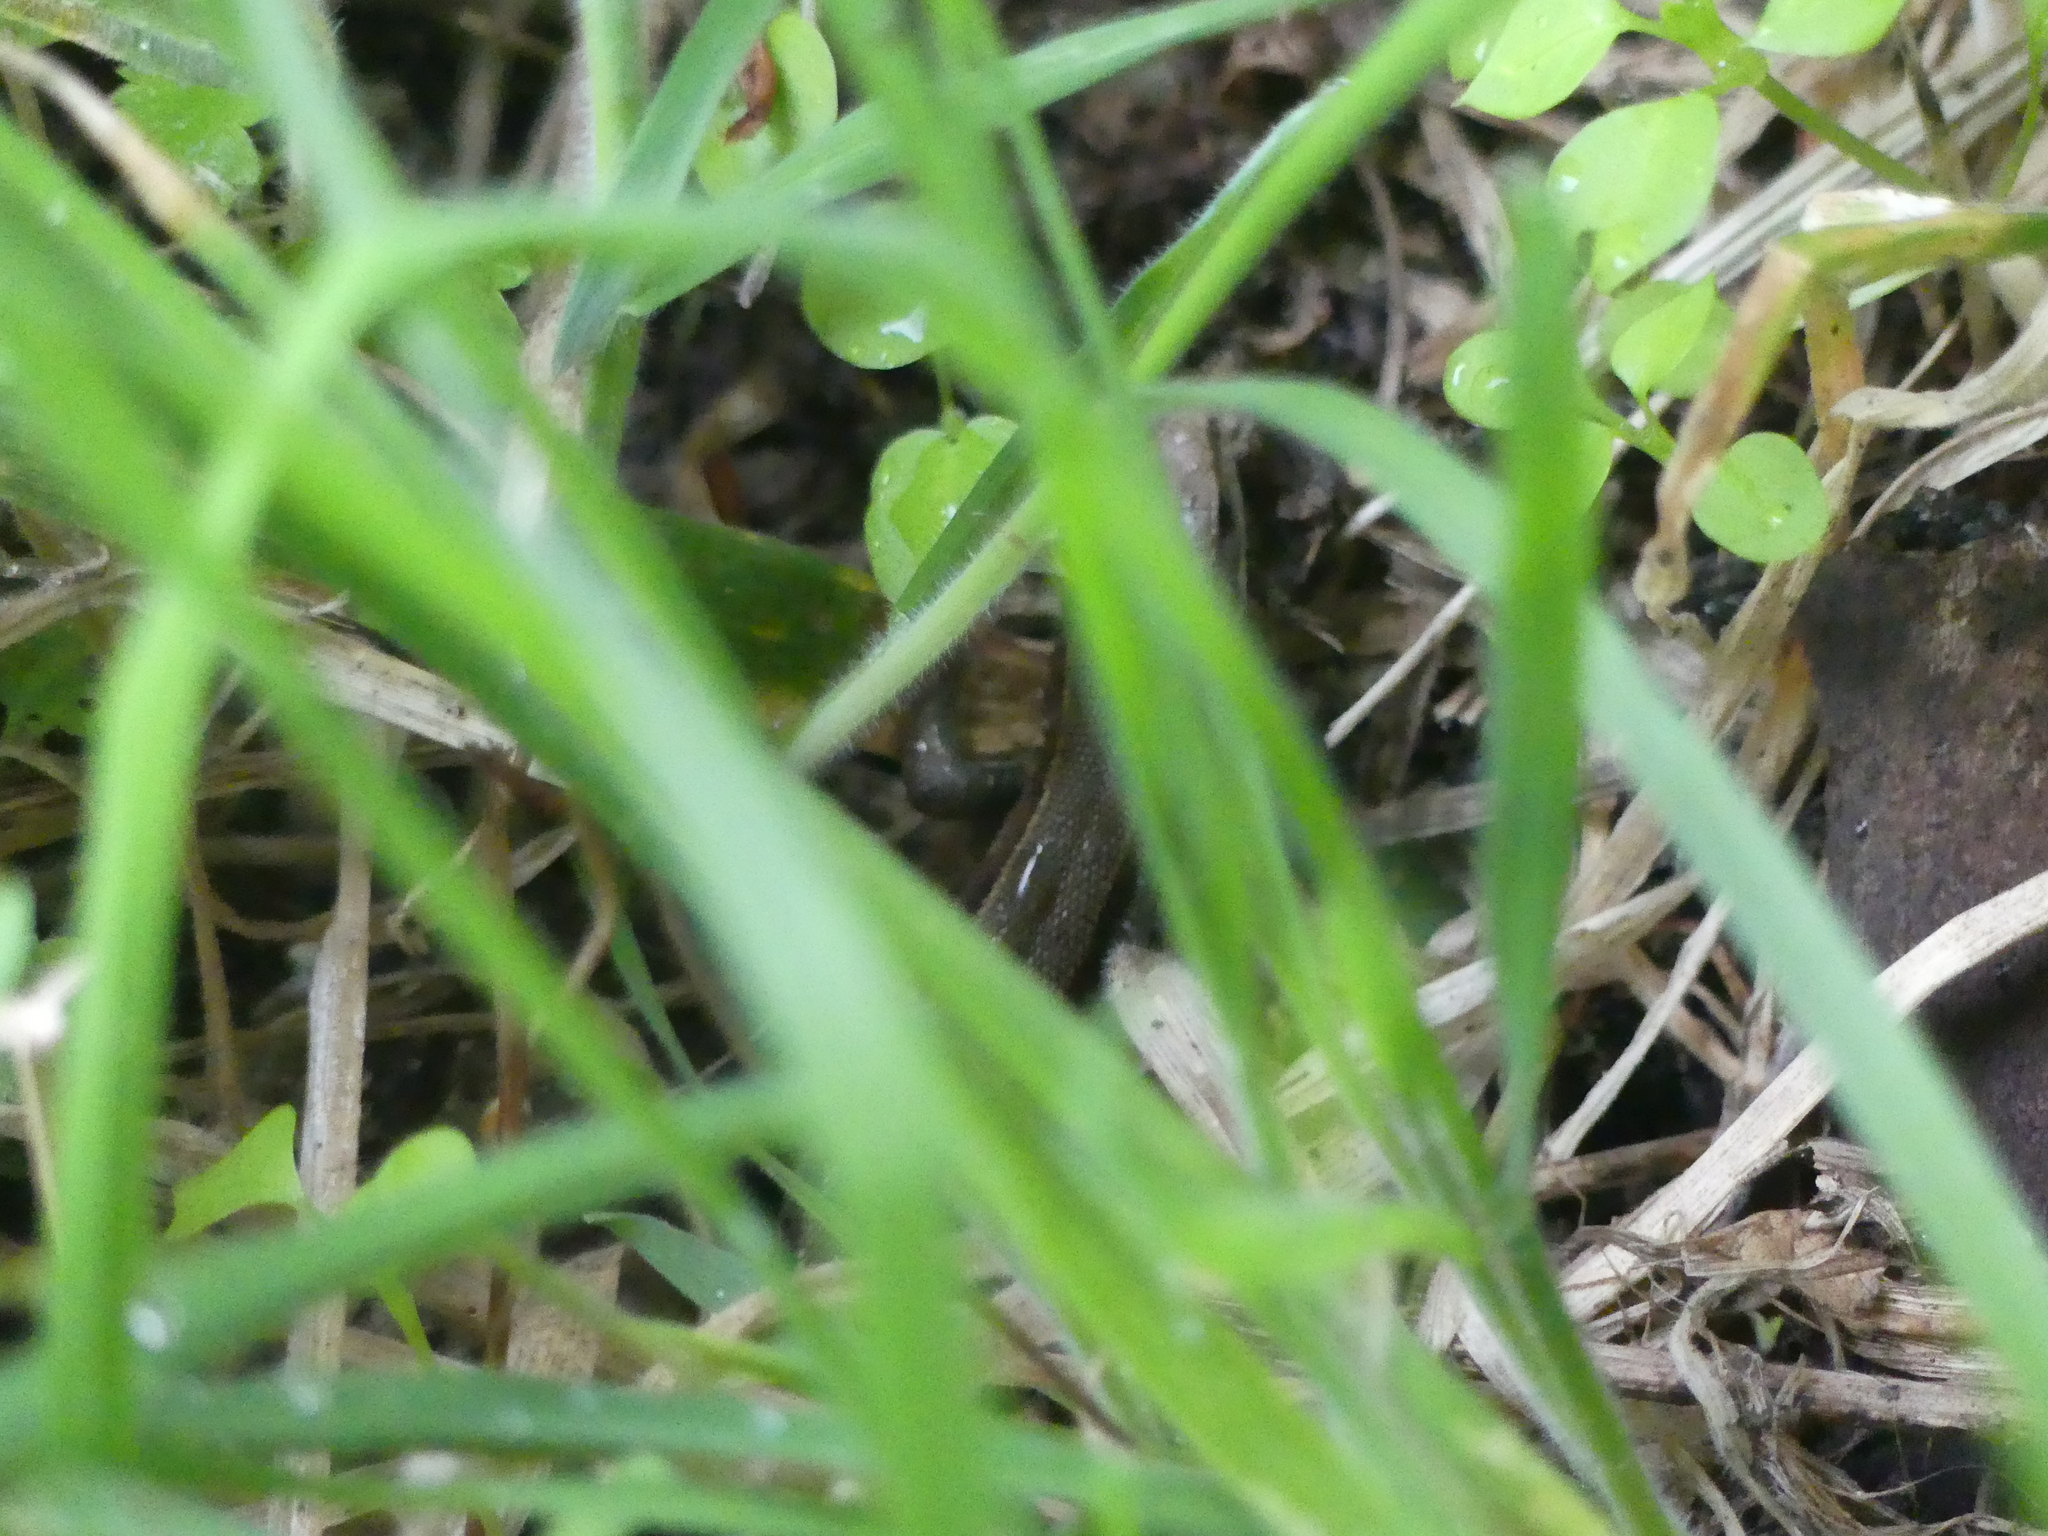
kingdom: Animalia
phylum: Chordata
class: Squamata
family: Lacertidae
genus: Zootoca
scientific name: Zootoca vivipara
